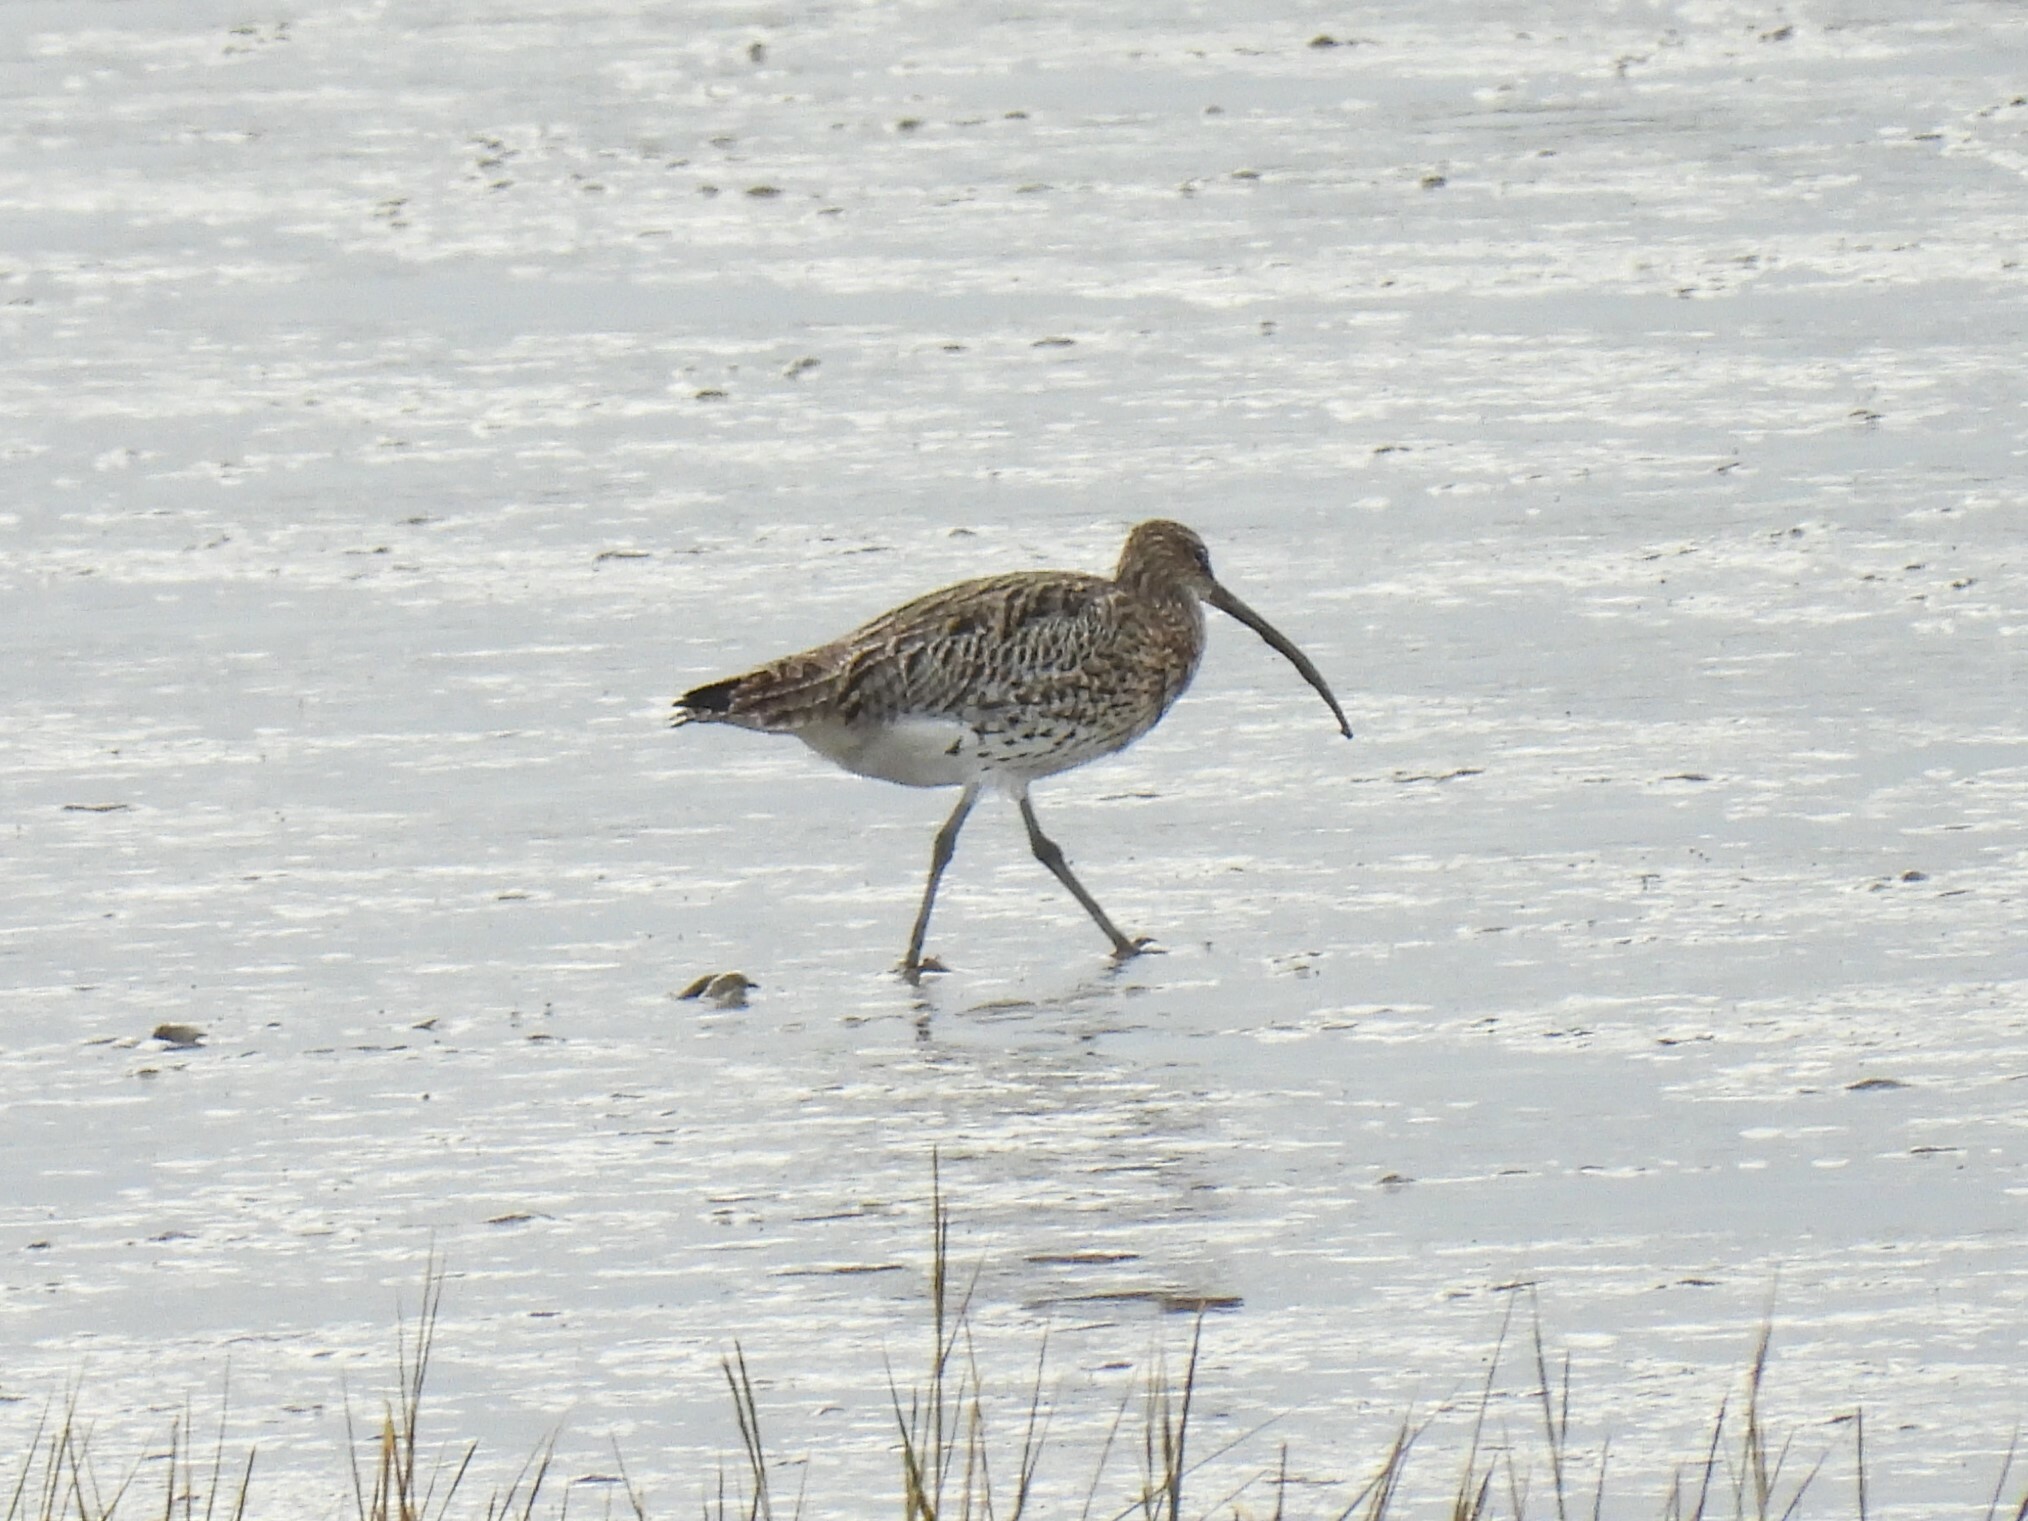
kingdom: Animalia
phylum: Chordata
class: Aves
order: Charadriiformes
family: Scolopacidae
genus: Numenius
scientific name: Numenius arquata
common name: Eurasian curlew
